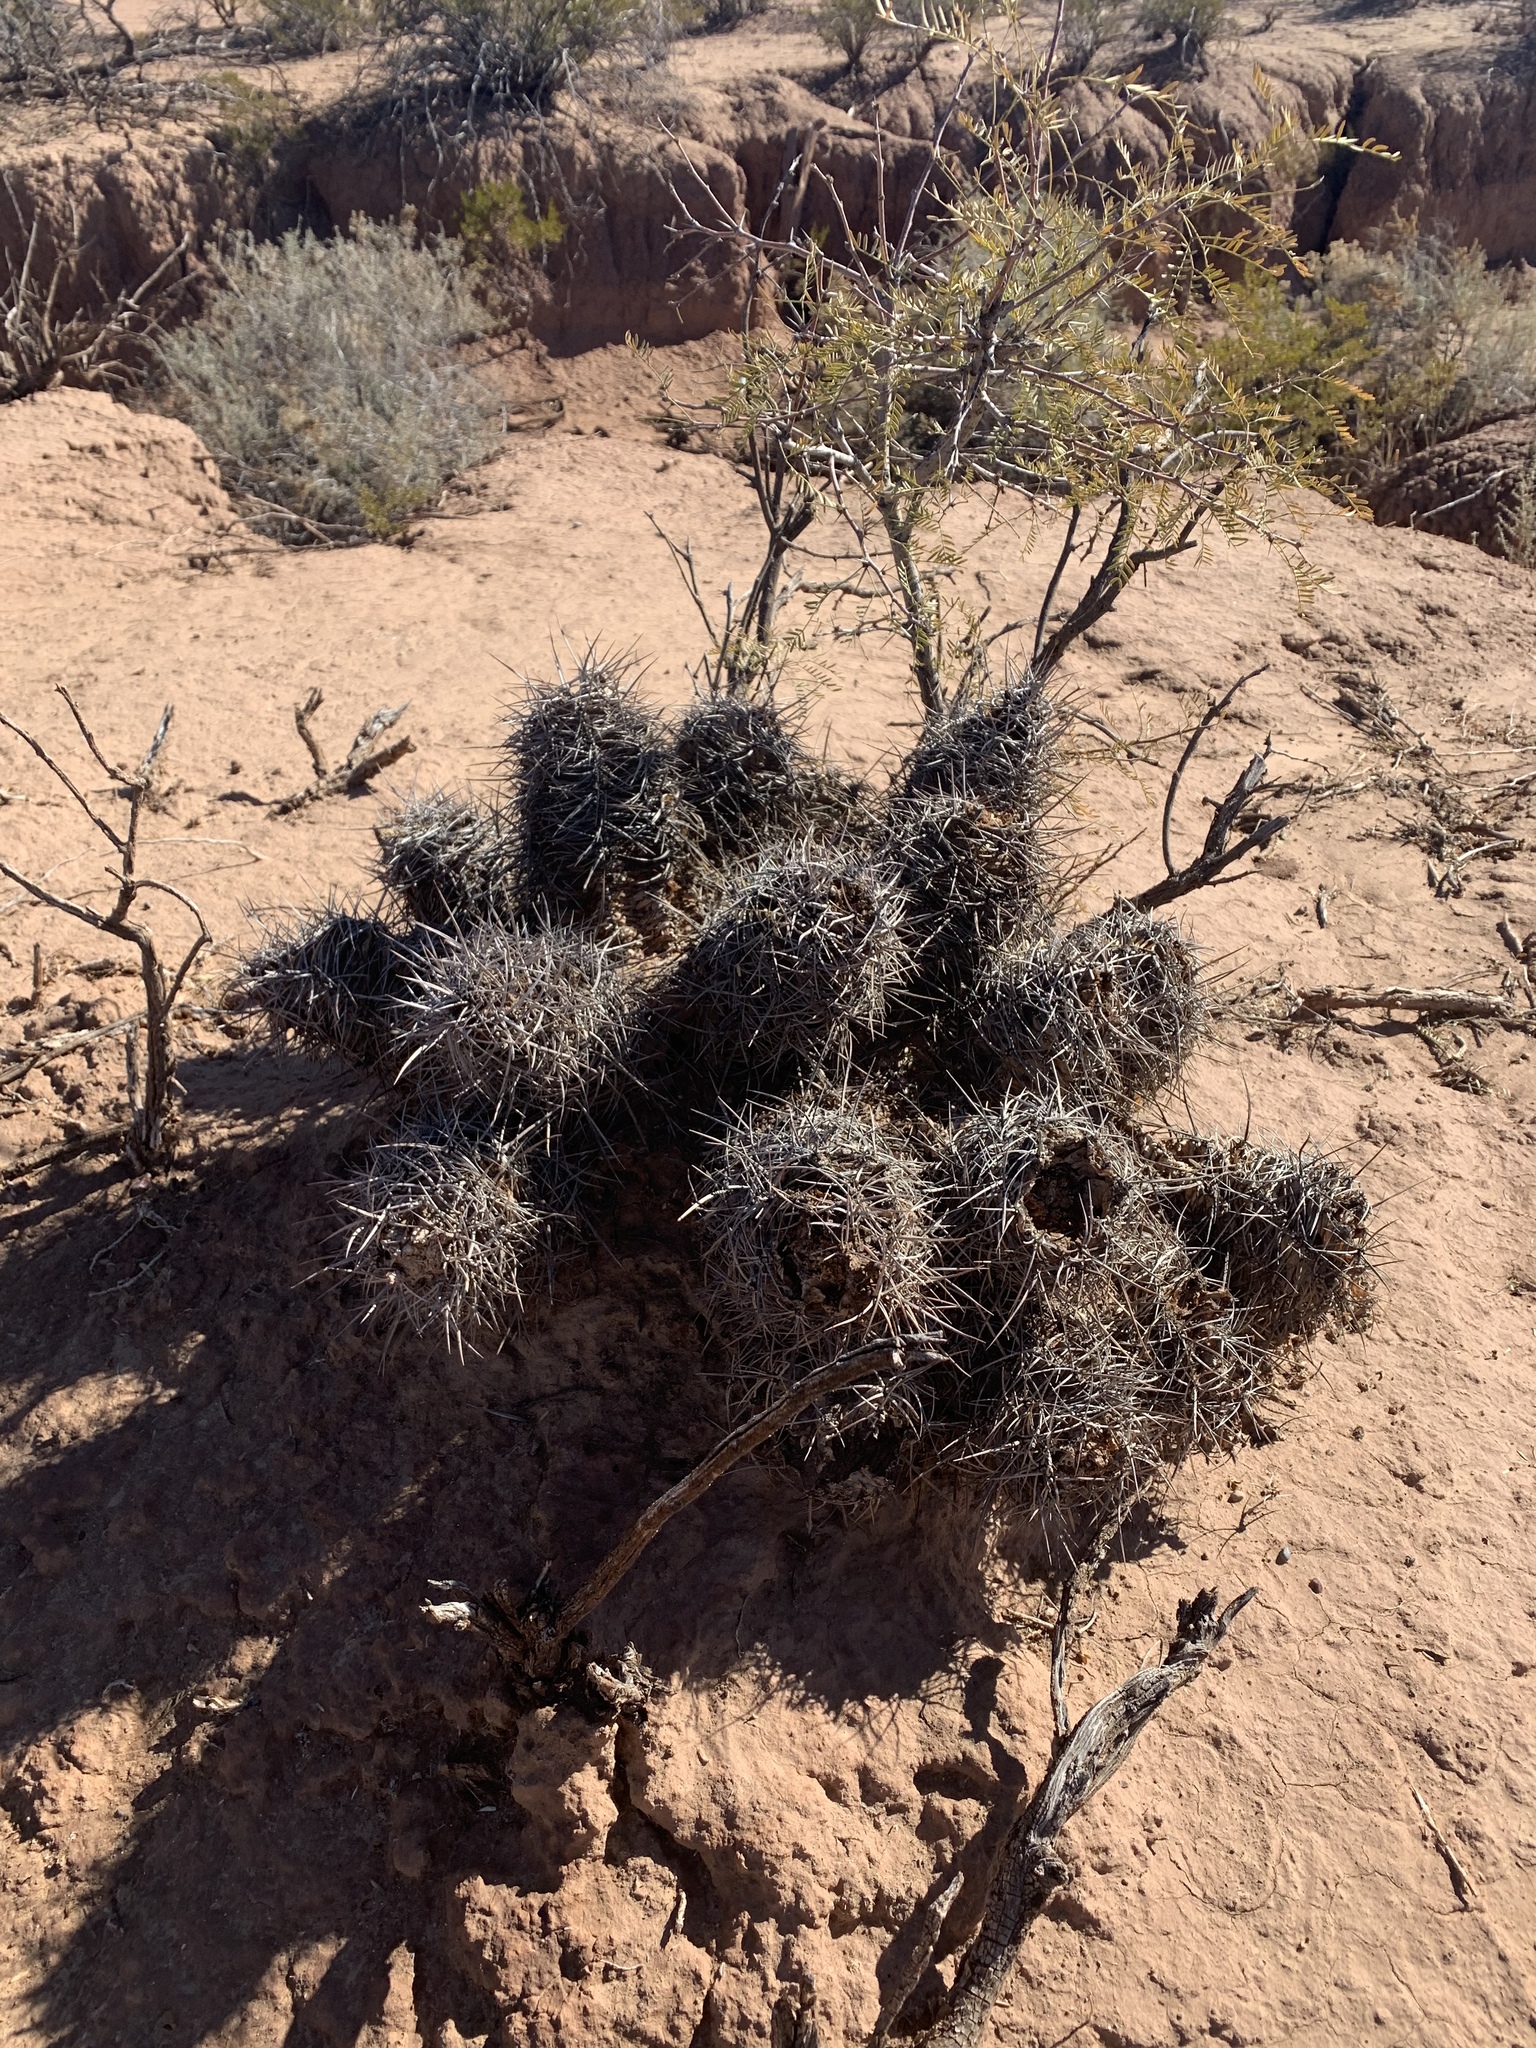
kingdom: Plantae
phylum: Tracheophyta
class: Magnoliopsida
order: Caryophyllales
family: Cactaceae
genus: Echinocereus
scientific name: Echinocereus triglochidiatus
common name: Claretcup hedgehog
